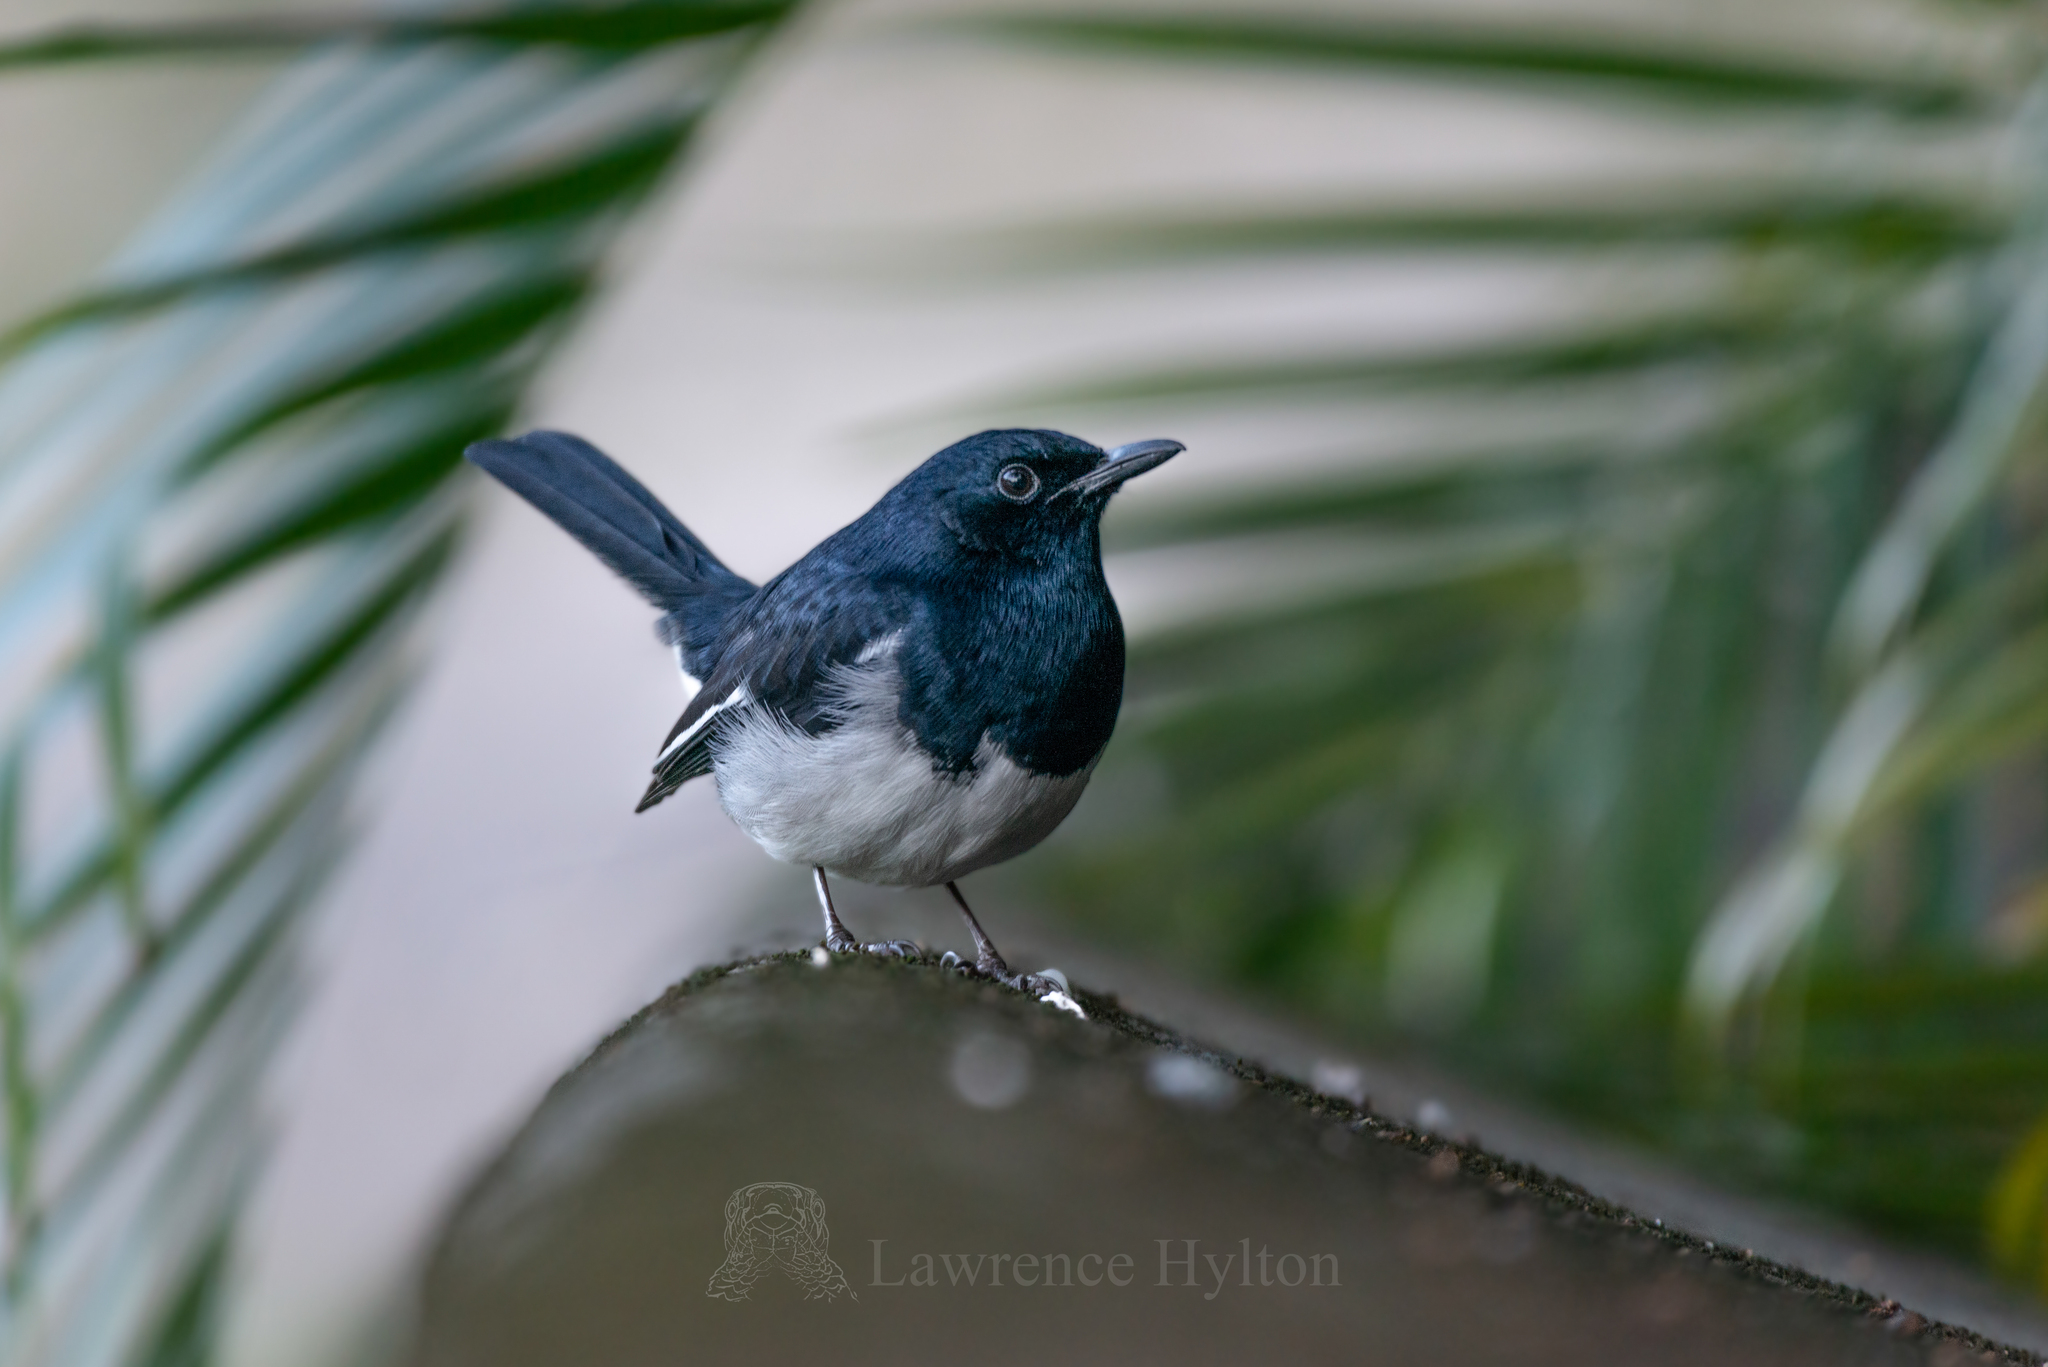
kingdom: Animalia
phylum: Chordata
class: Aves
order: Passeriformes
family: Muscicapidae
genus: Copsychus
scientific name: Copsychus saularis
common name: Oriental magpie-robin
